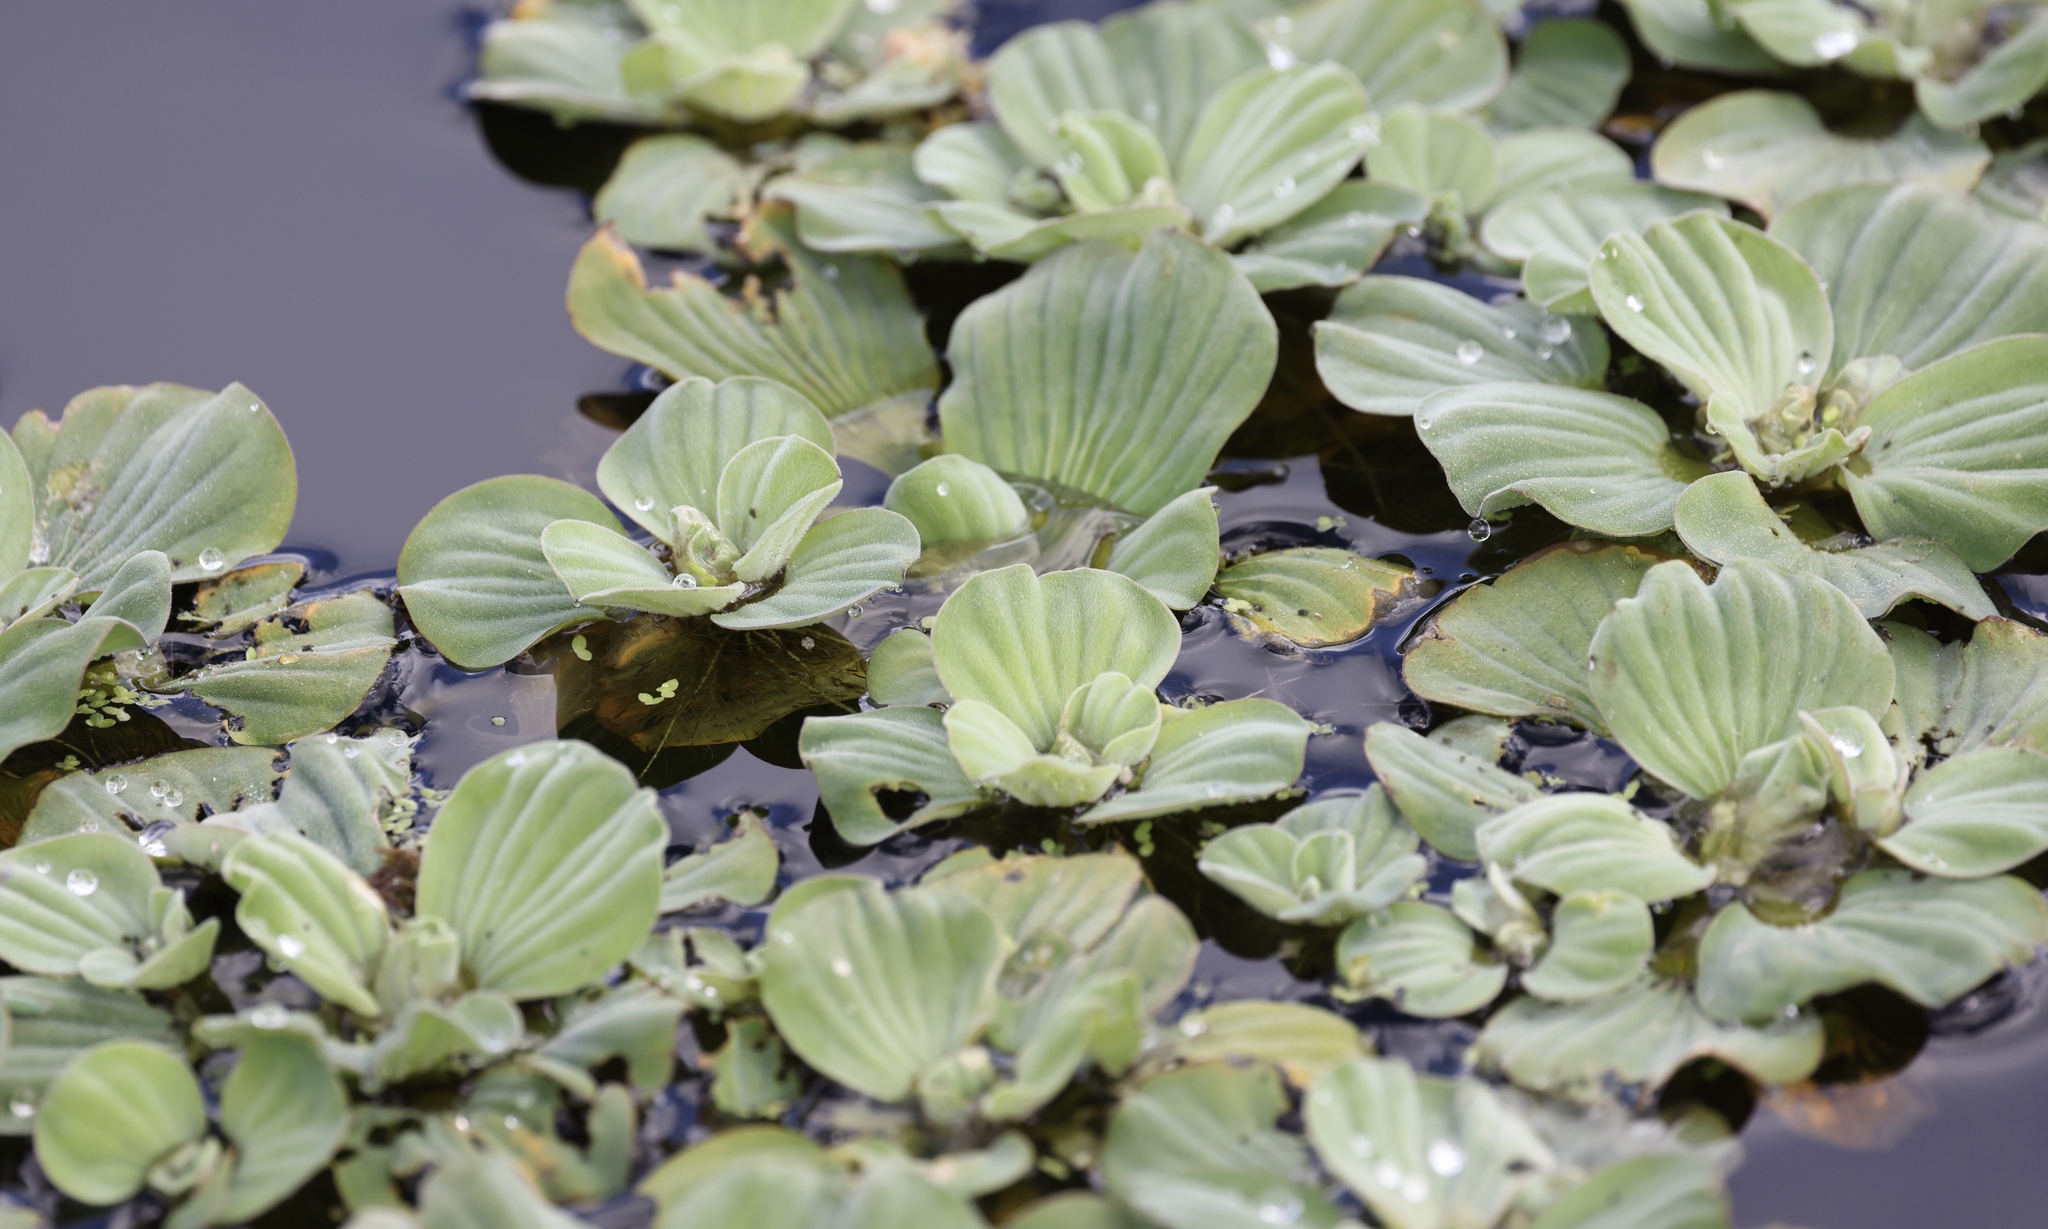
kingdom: Plantae
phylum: Tracheophyta
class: Liliopsida
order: Alismatales
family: Araceae
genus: Pistia
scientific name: Pistia stratiotes
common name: Water lettuce
